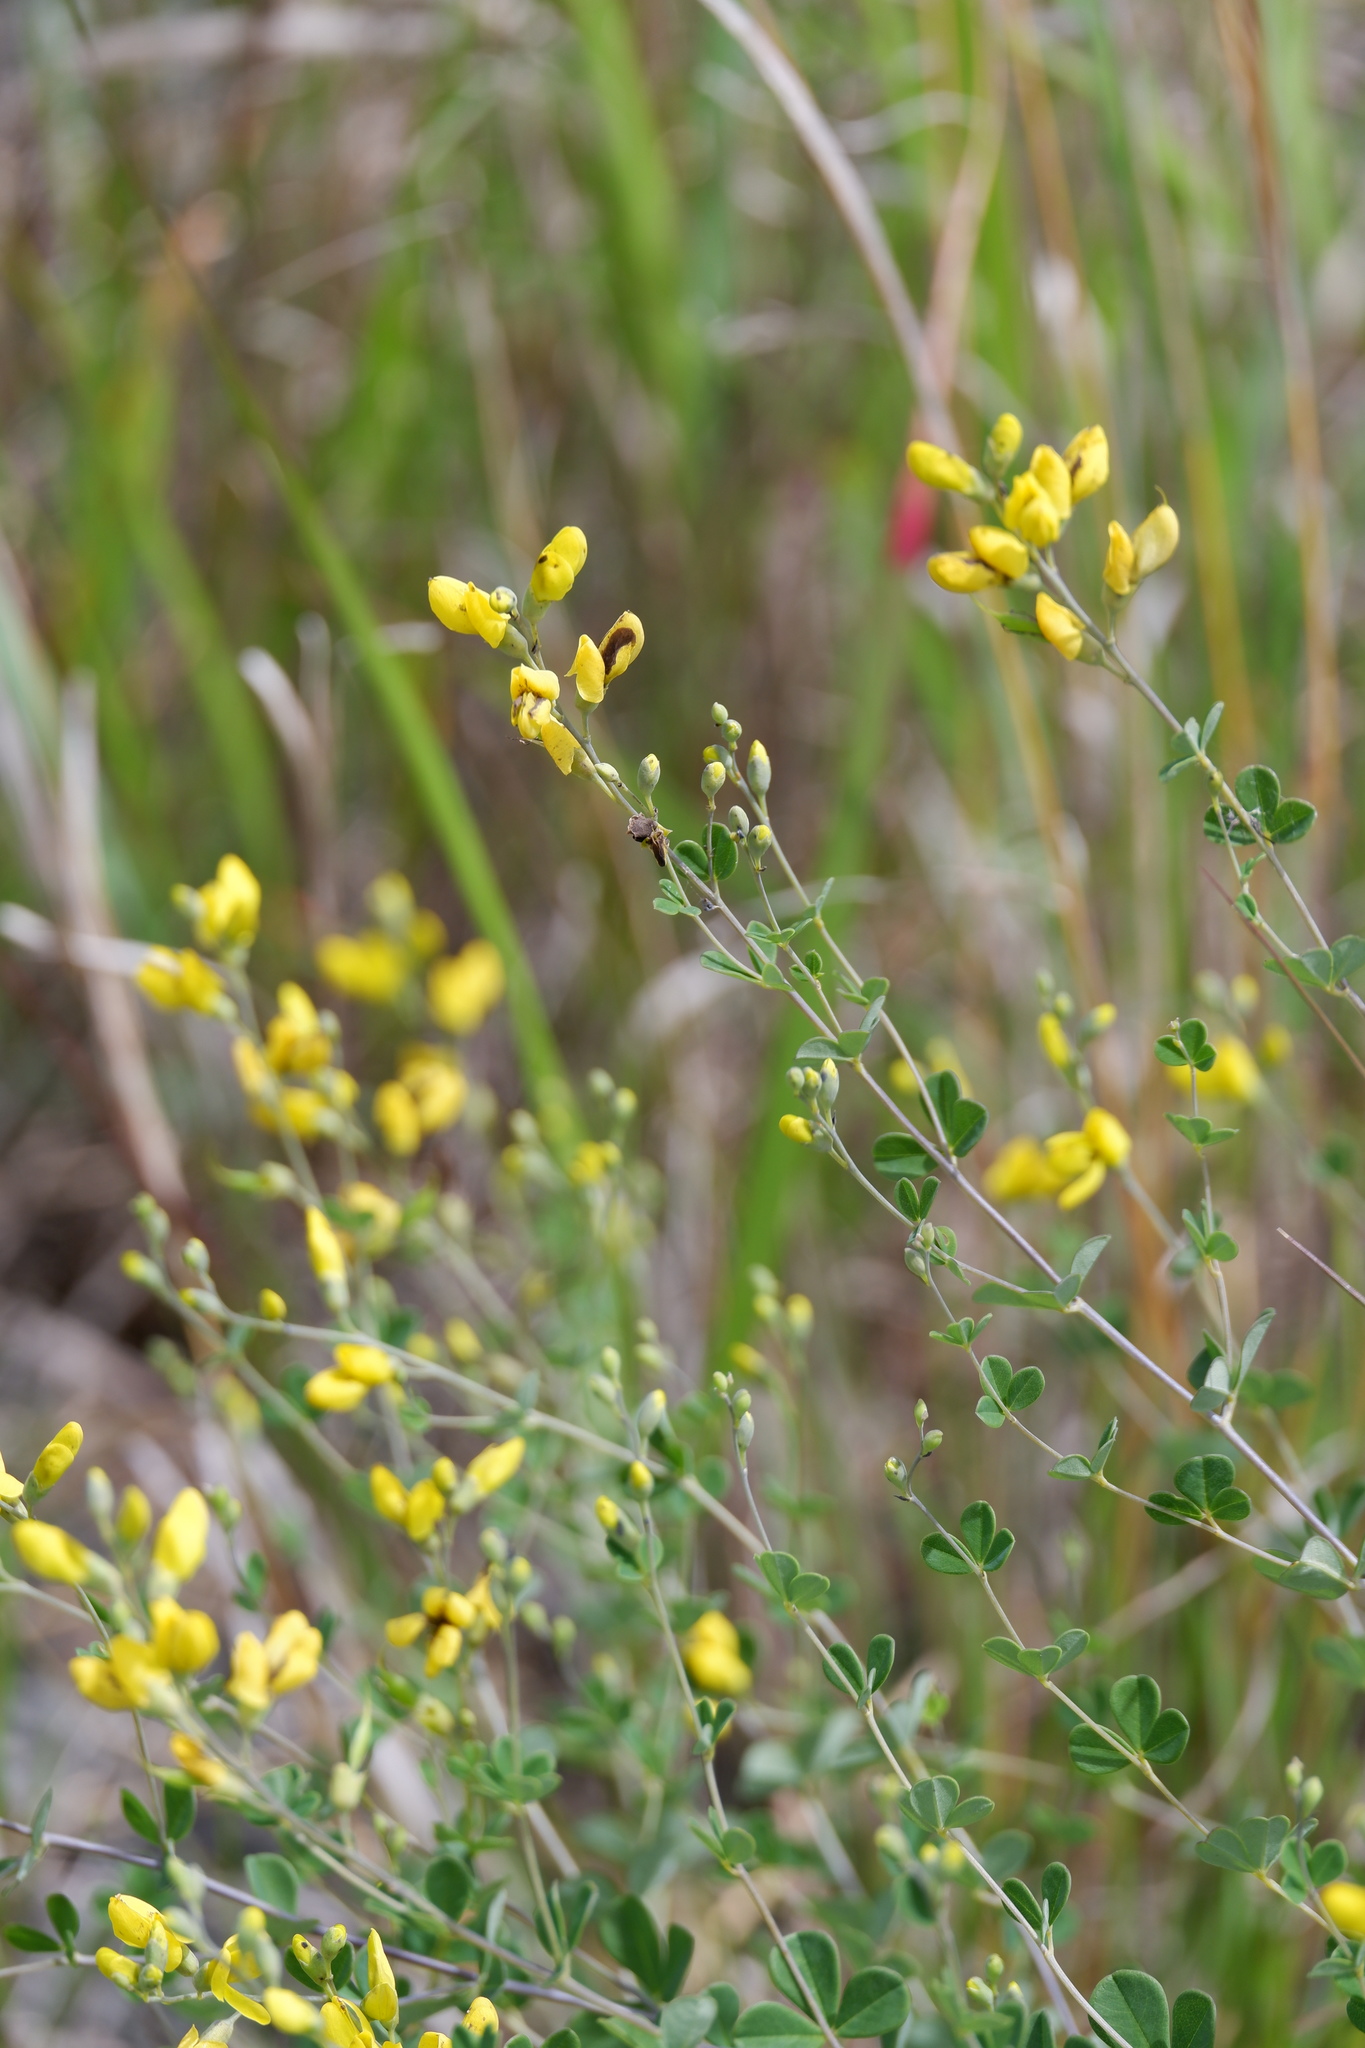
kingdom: Plantae
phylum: Tracheophyta
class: Magnoliopsida
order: Fabales
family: Fabaceae
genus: Baptisia
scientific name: Baptisia tinctoria
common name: Wild indigo
